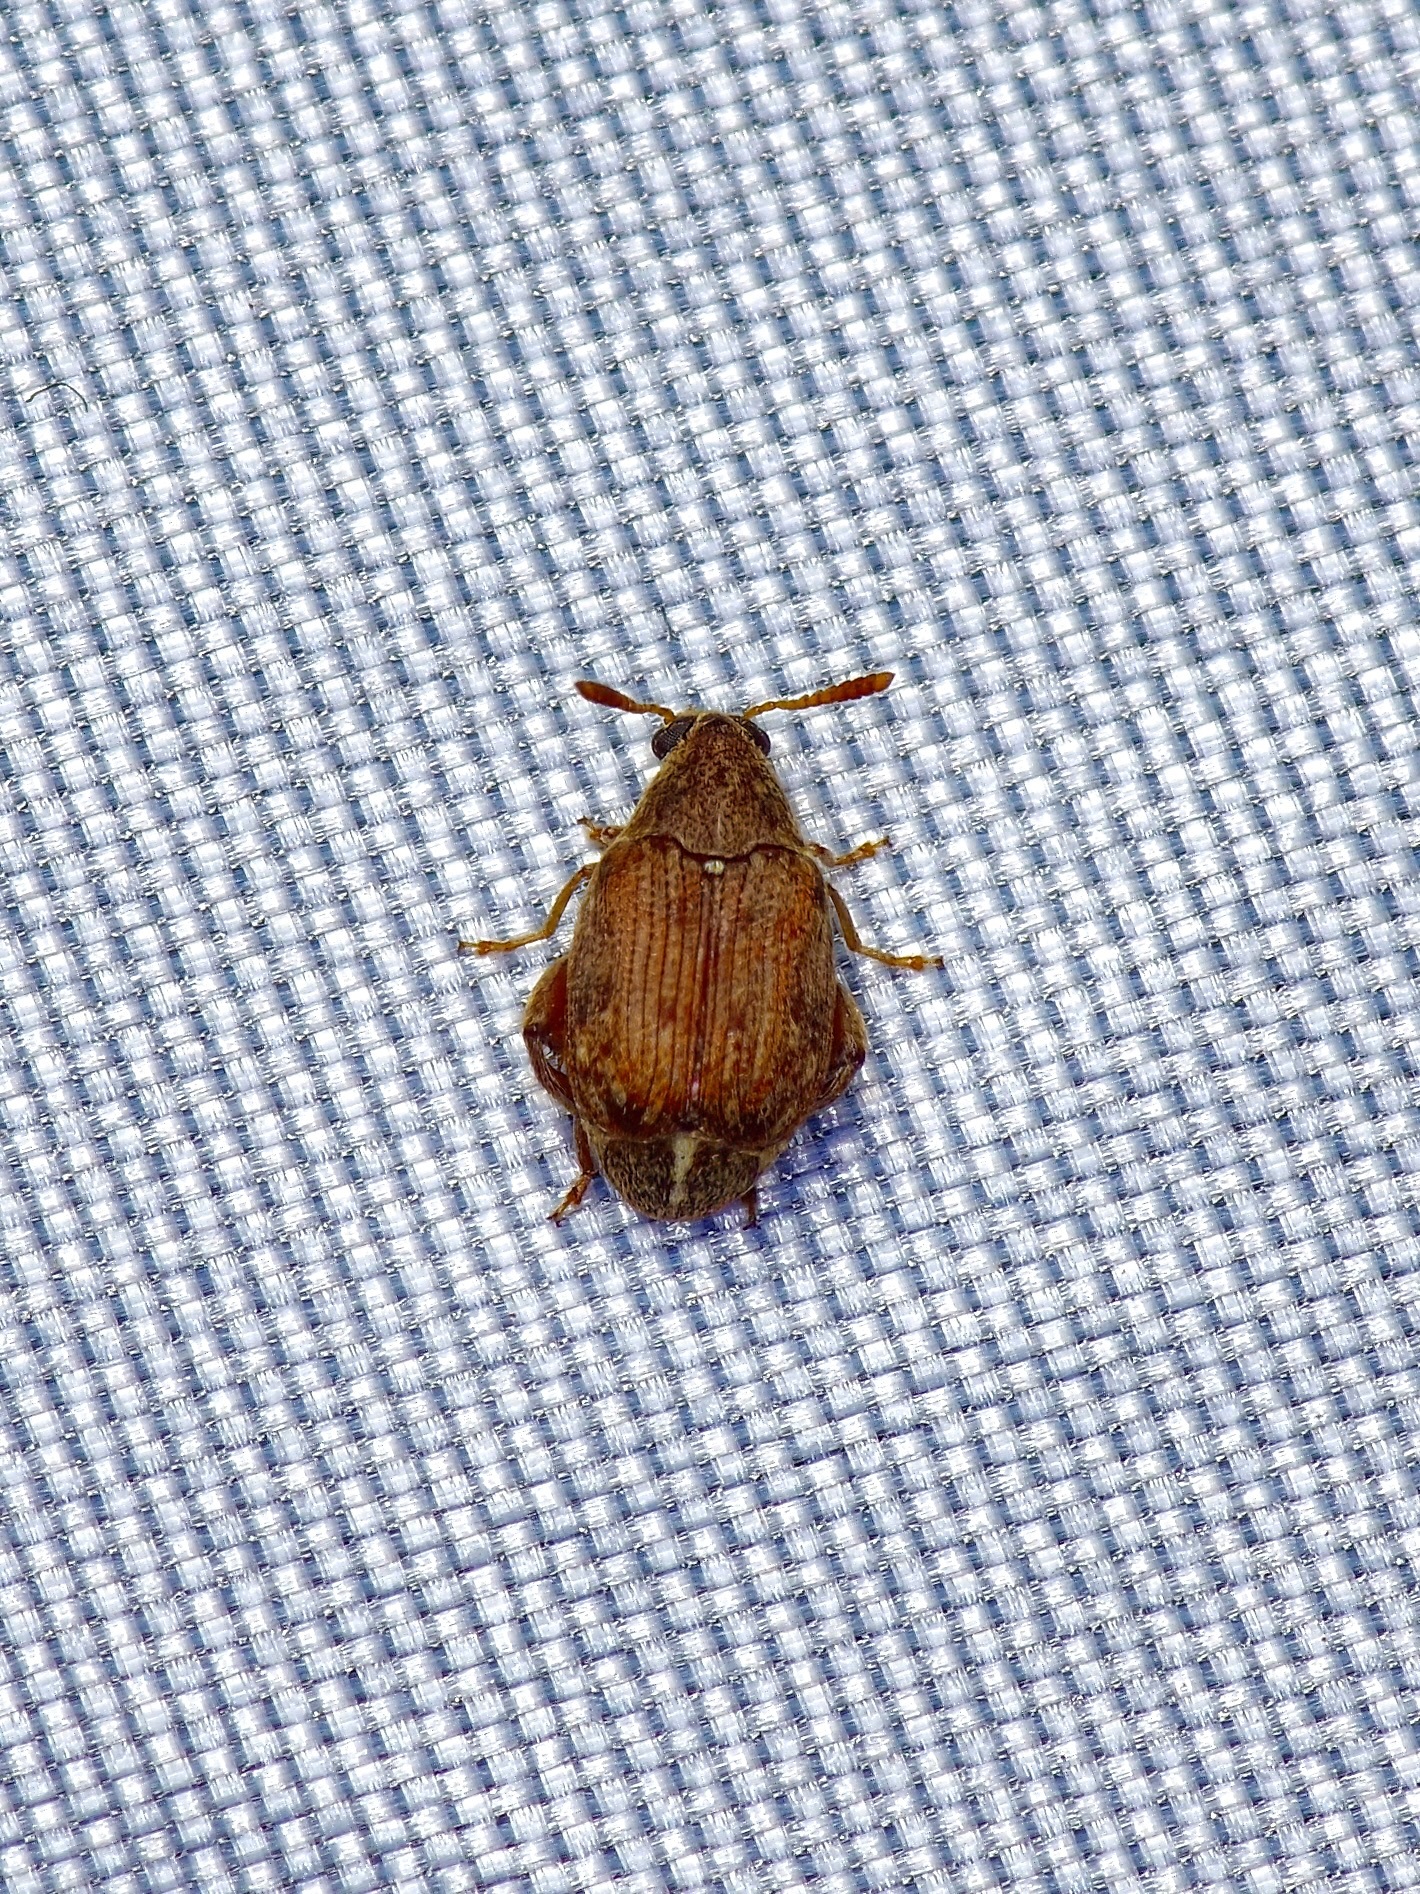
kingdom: Animalia
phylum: Arthropoda
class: Insecta
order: Coleoptera
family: Chrysomelidae
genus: Merobruchus
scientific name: Merobruchus insolitus
